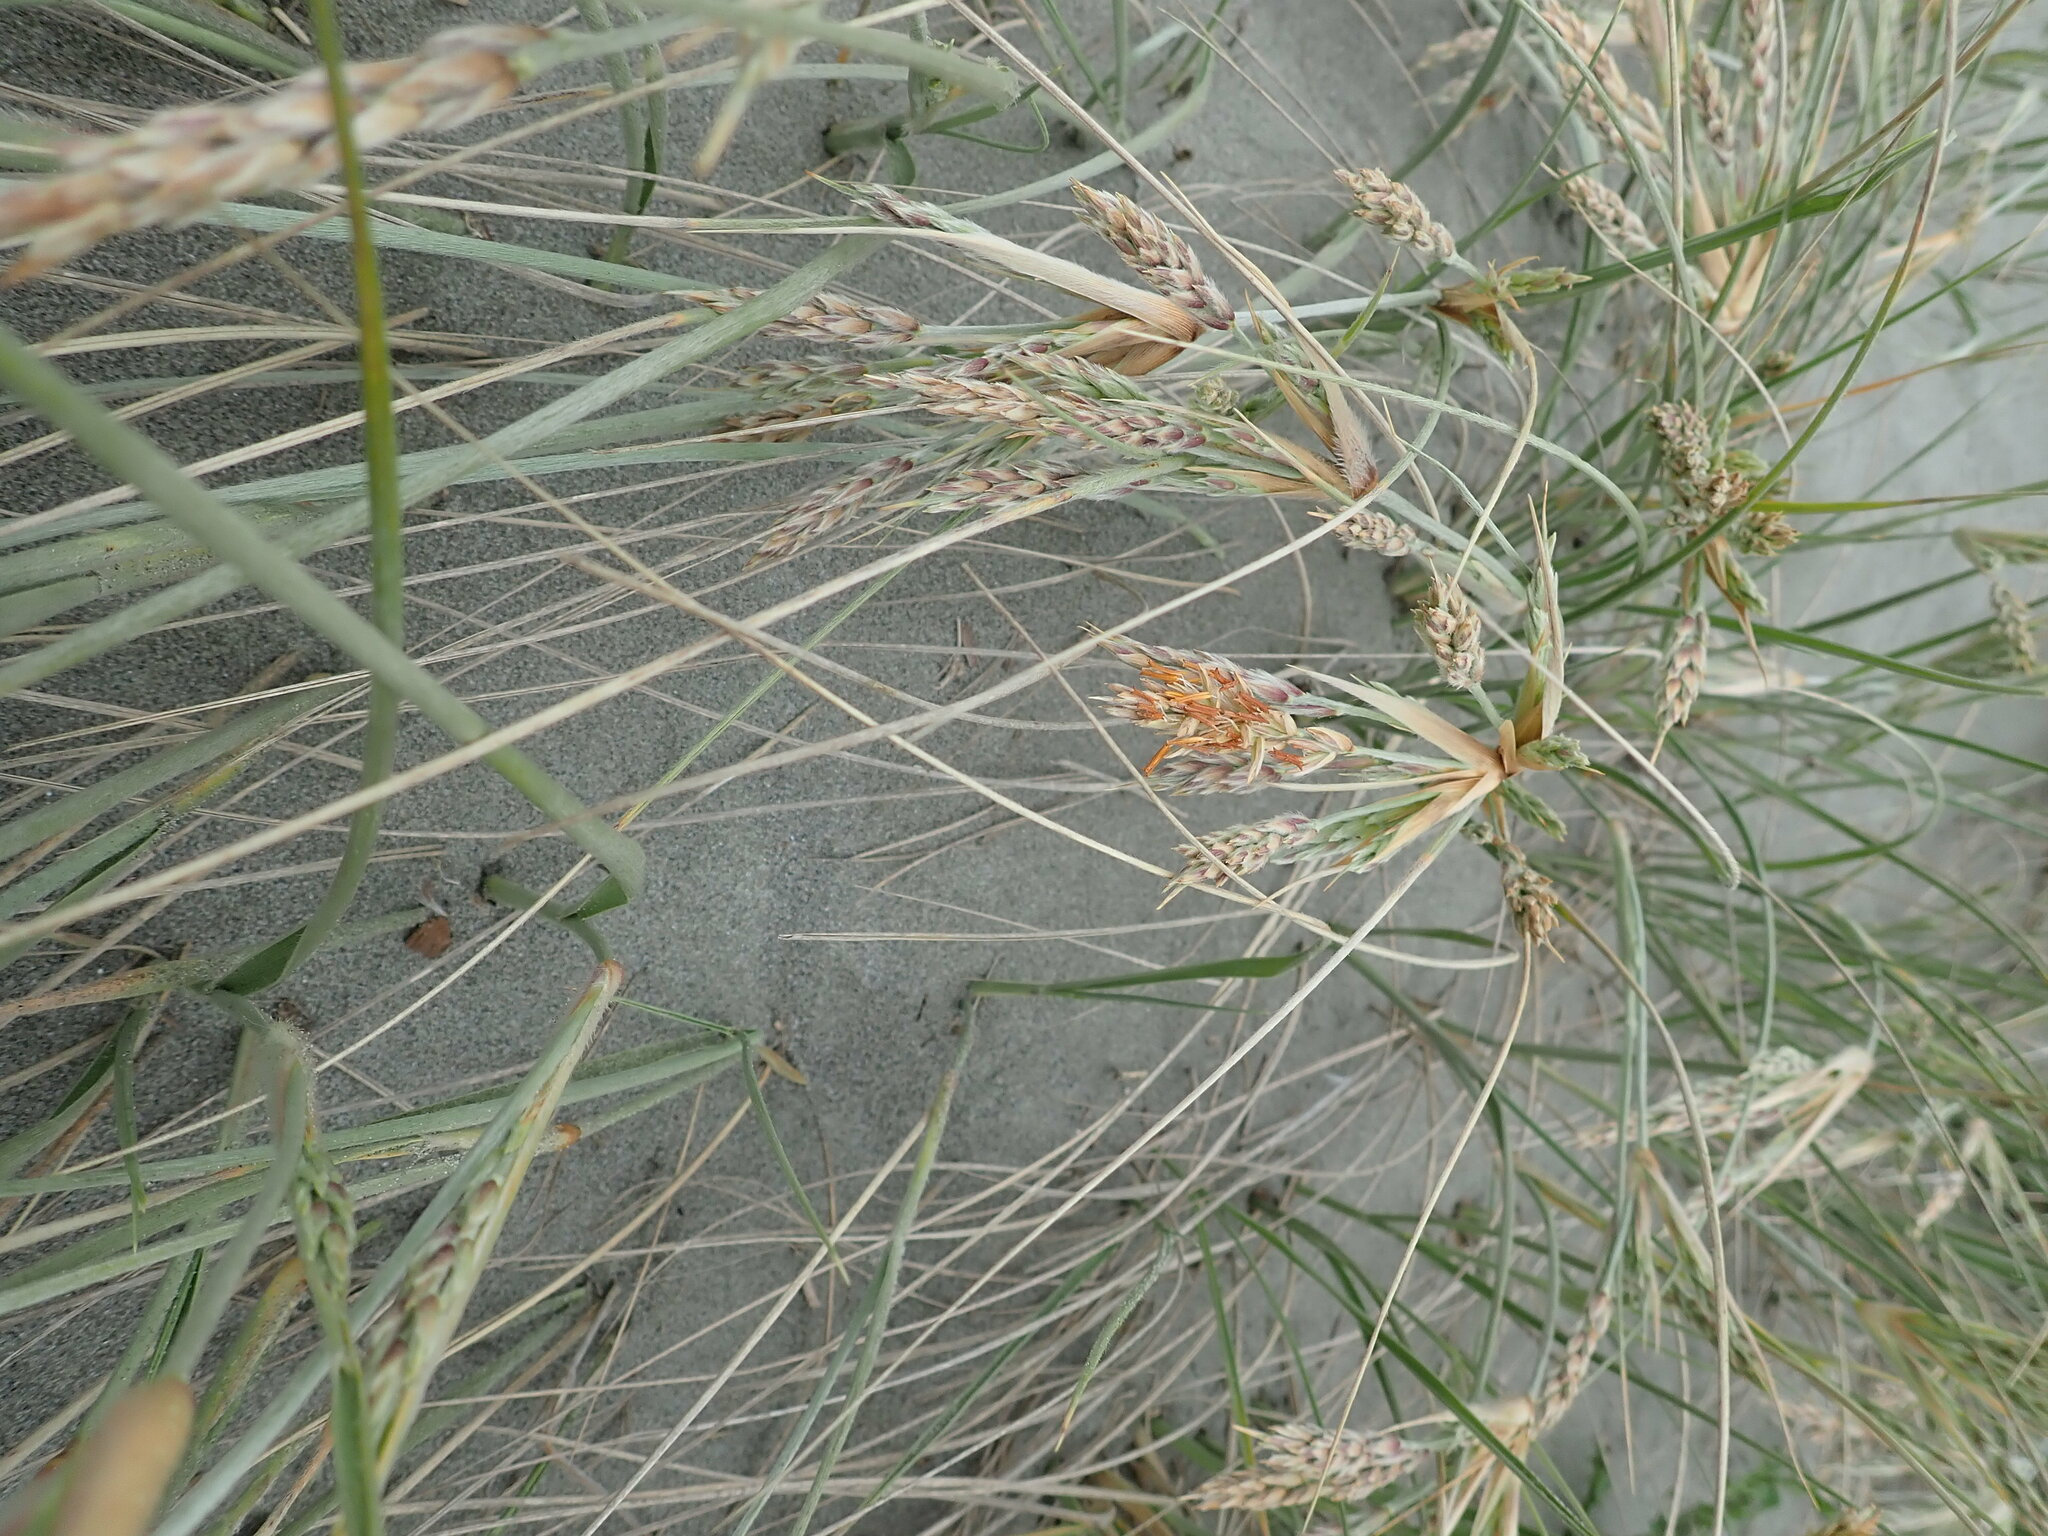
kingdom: Plantae
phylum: Tracheophyta
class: Liliopsida
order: Poales
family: Poaceae
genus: Spinifex
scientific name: Spinifex sericeus
